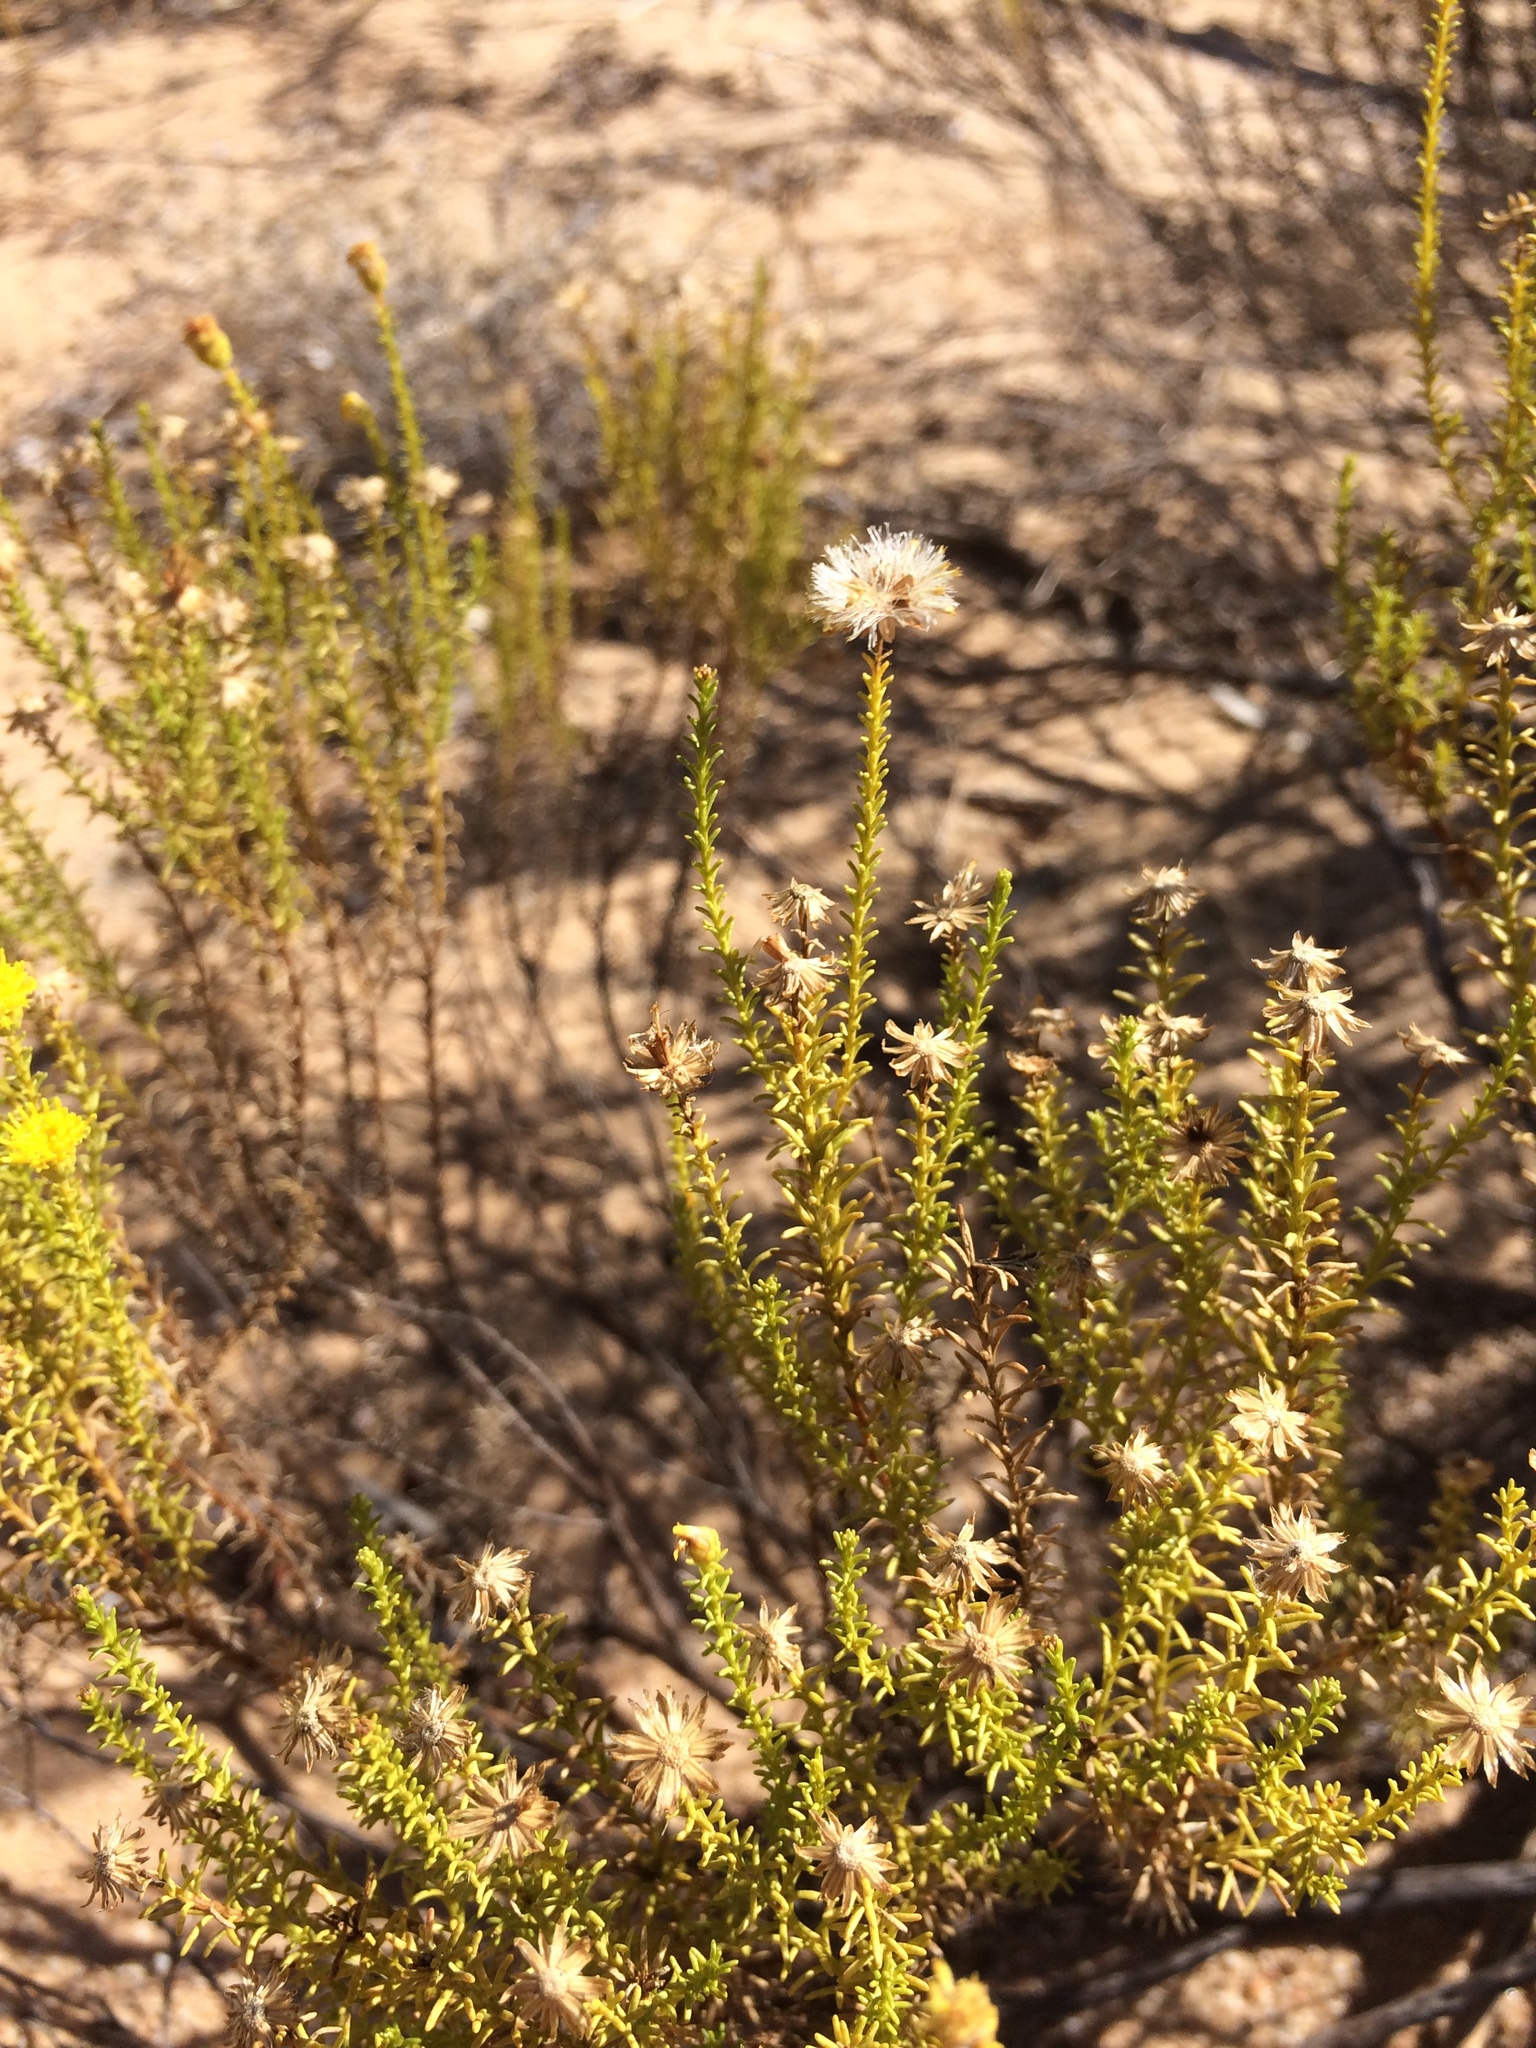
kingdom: Plantae
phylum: Tracheophyta
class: Magnoliopsida
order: Asterales
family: Asteraceae
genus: Chrysocoma
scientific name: Chrysocoma ciliata
